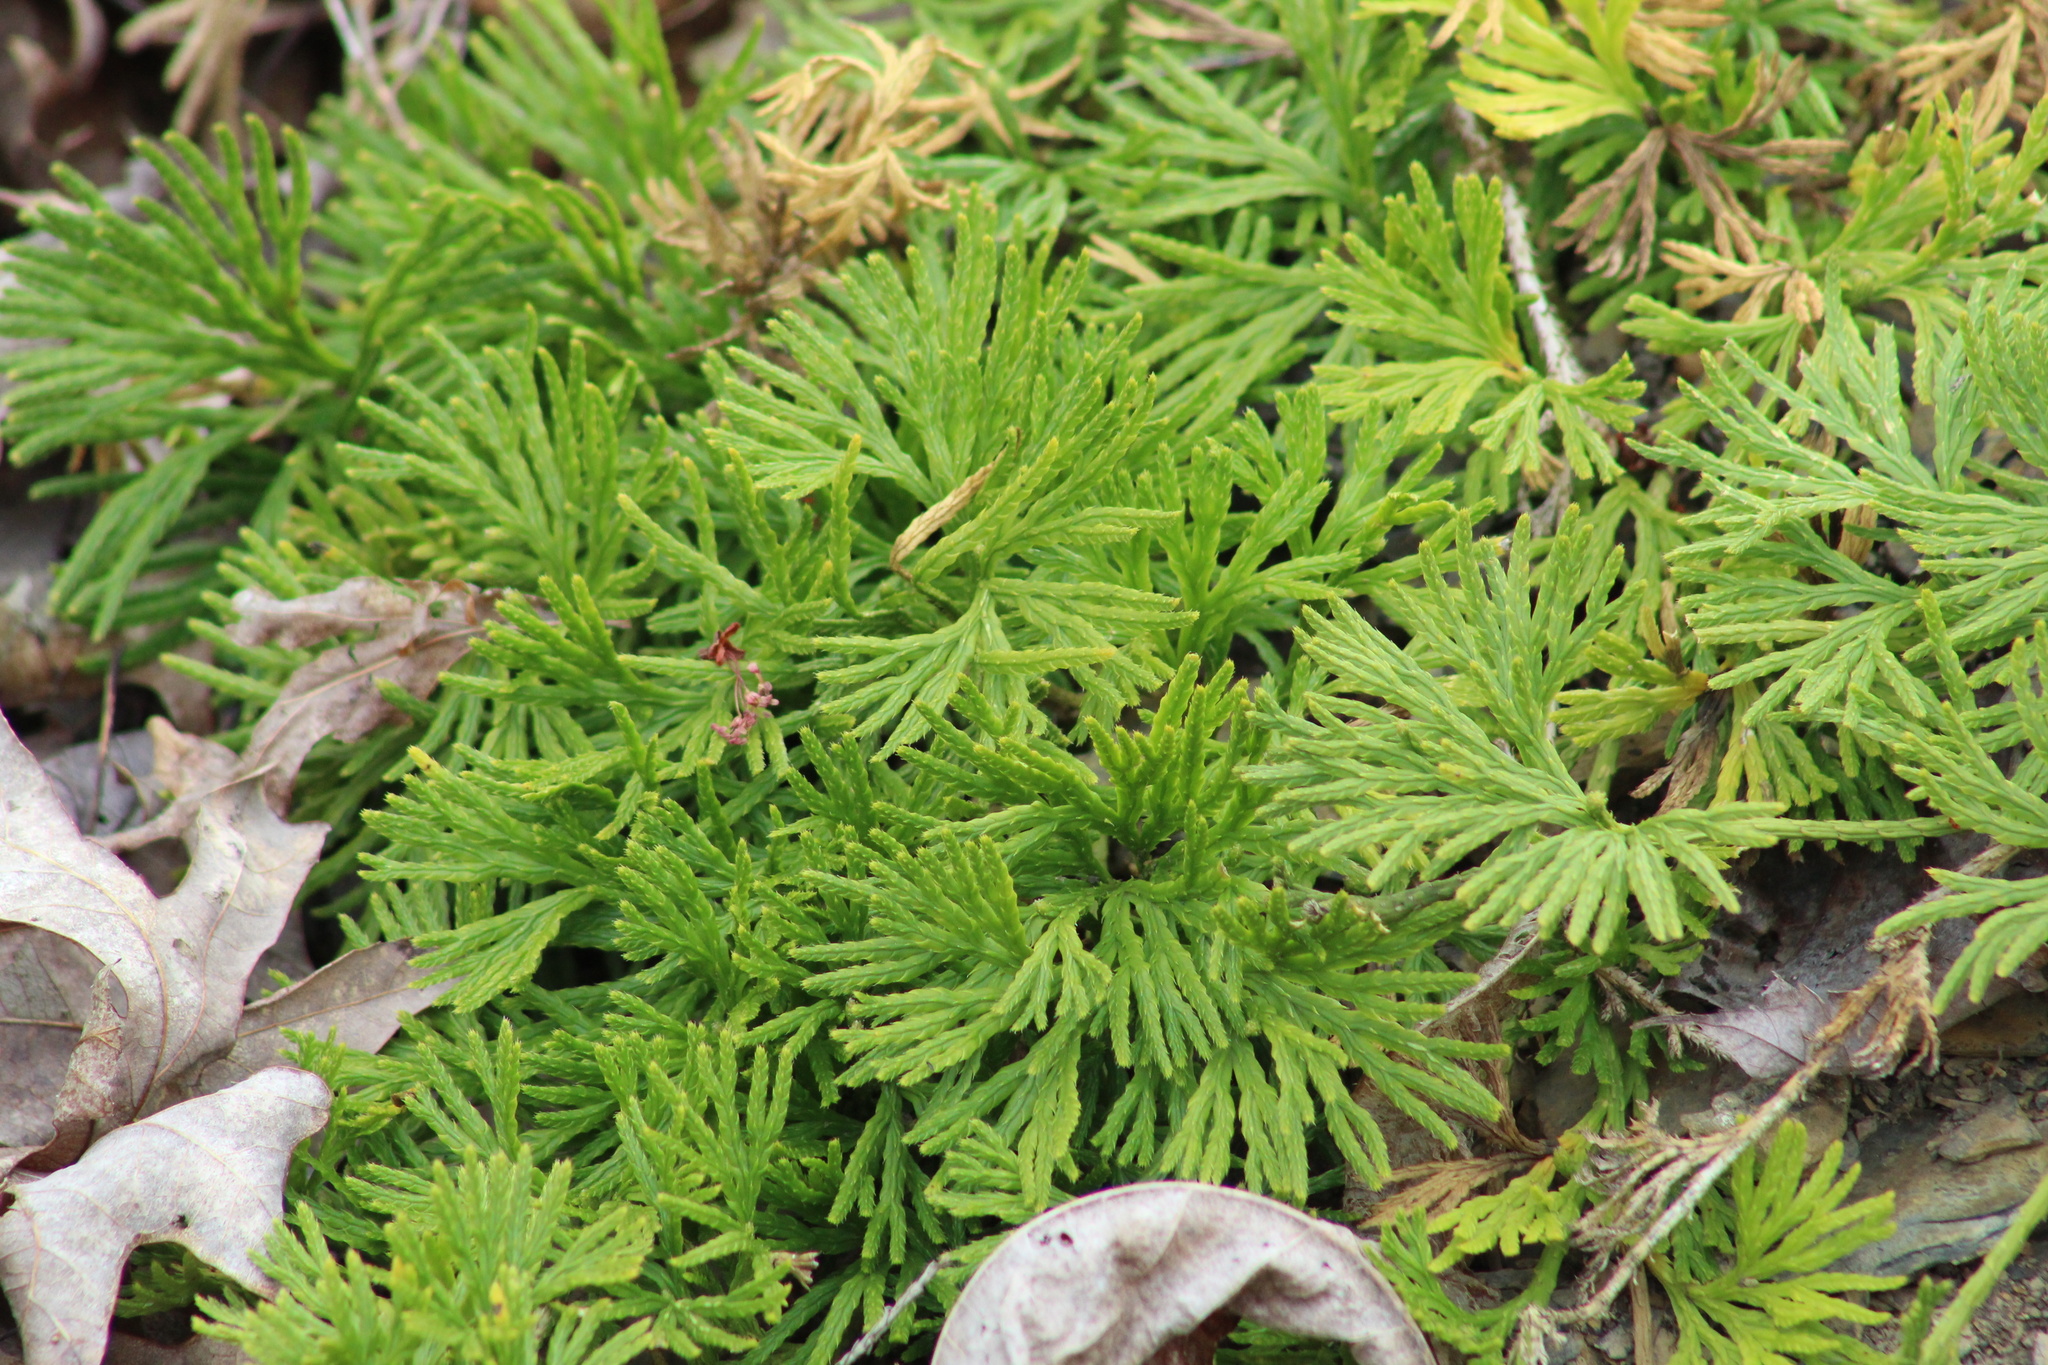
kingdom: Plantae
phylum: Tracheophyta
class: Lycopodiopsida
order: Lycopodiales
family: Lycopodiaceae
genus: Diphasiastrum
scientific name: Diphasiastrum digitatum
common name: Southern running-pine
